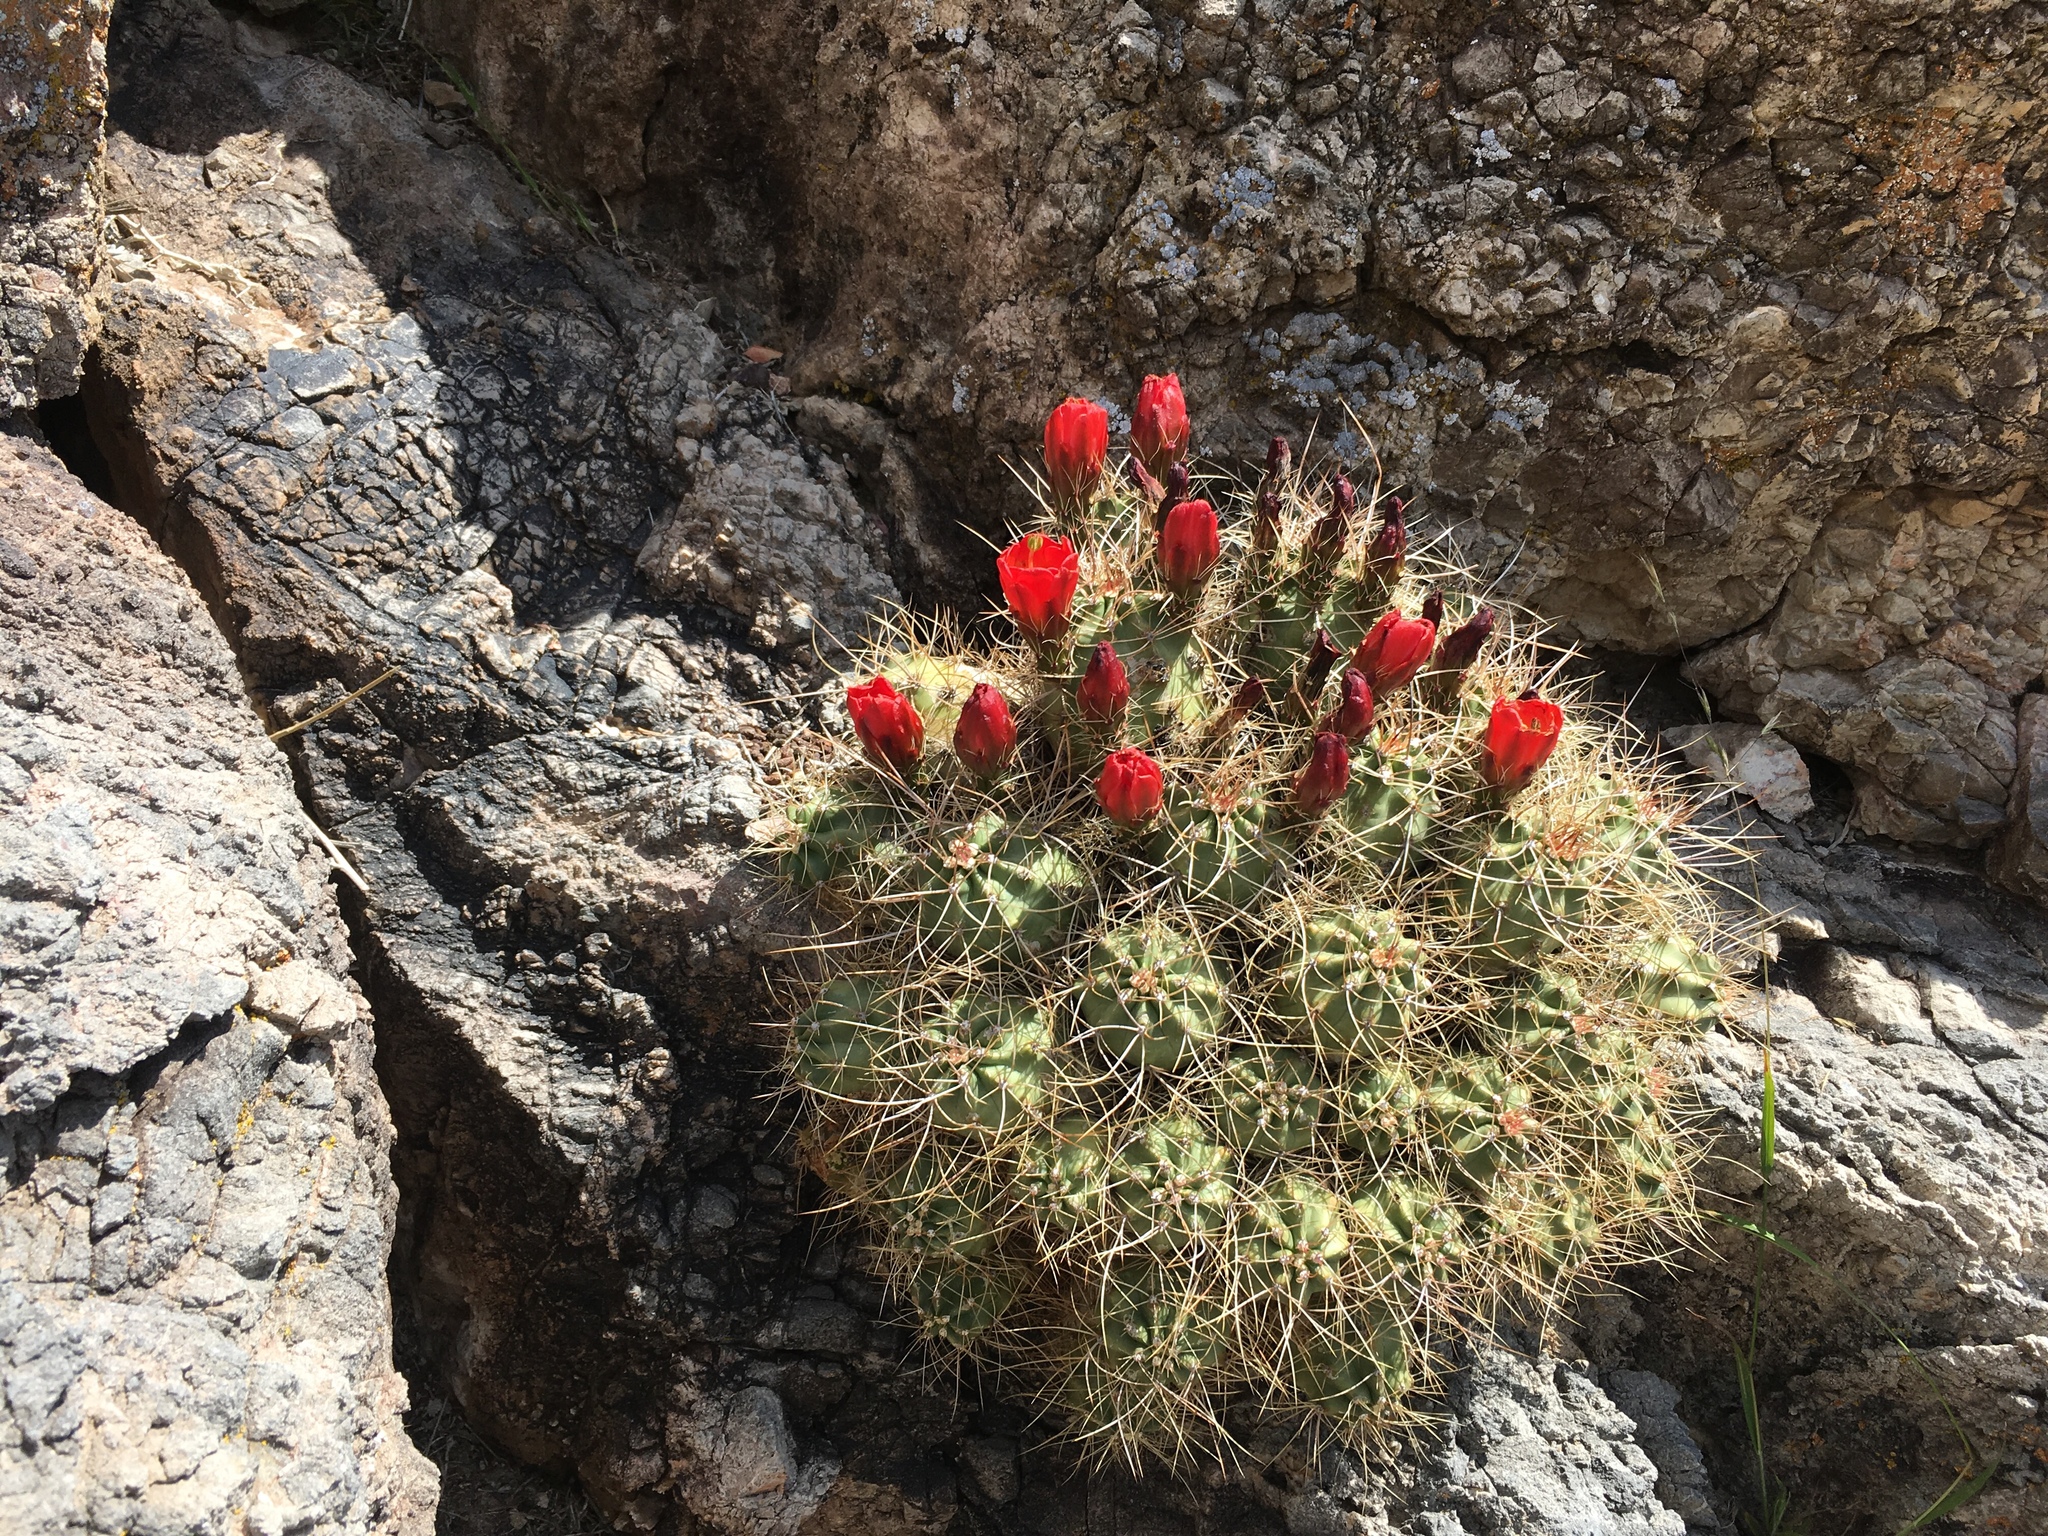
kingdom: Plantae
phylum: Tracheophyta
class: Magnoliopsida
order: Caryophyllales
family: Cactaceae
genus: Echinocereus
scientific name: Echinocereus triglochidiatus
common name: Claretcup hedgehog
